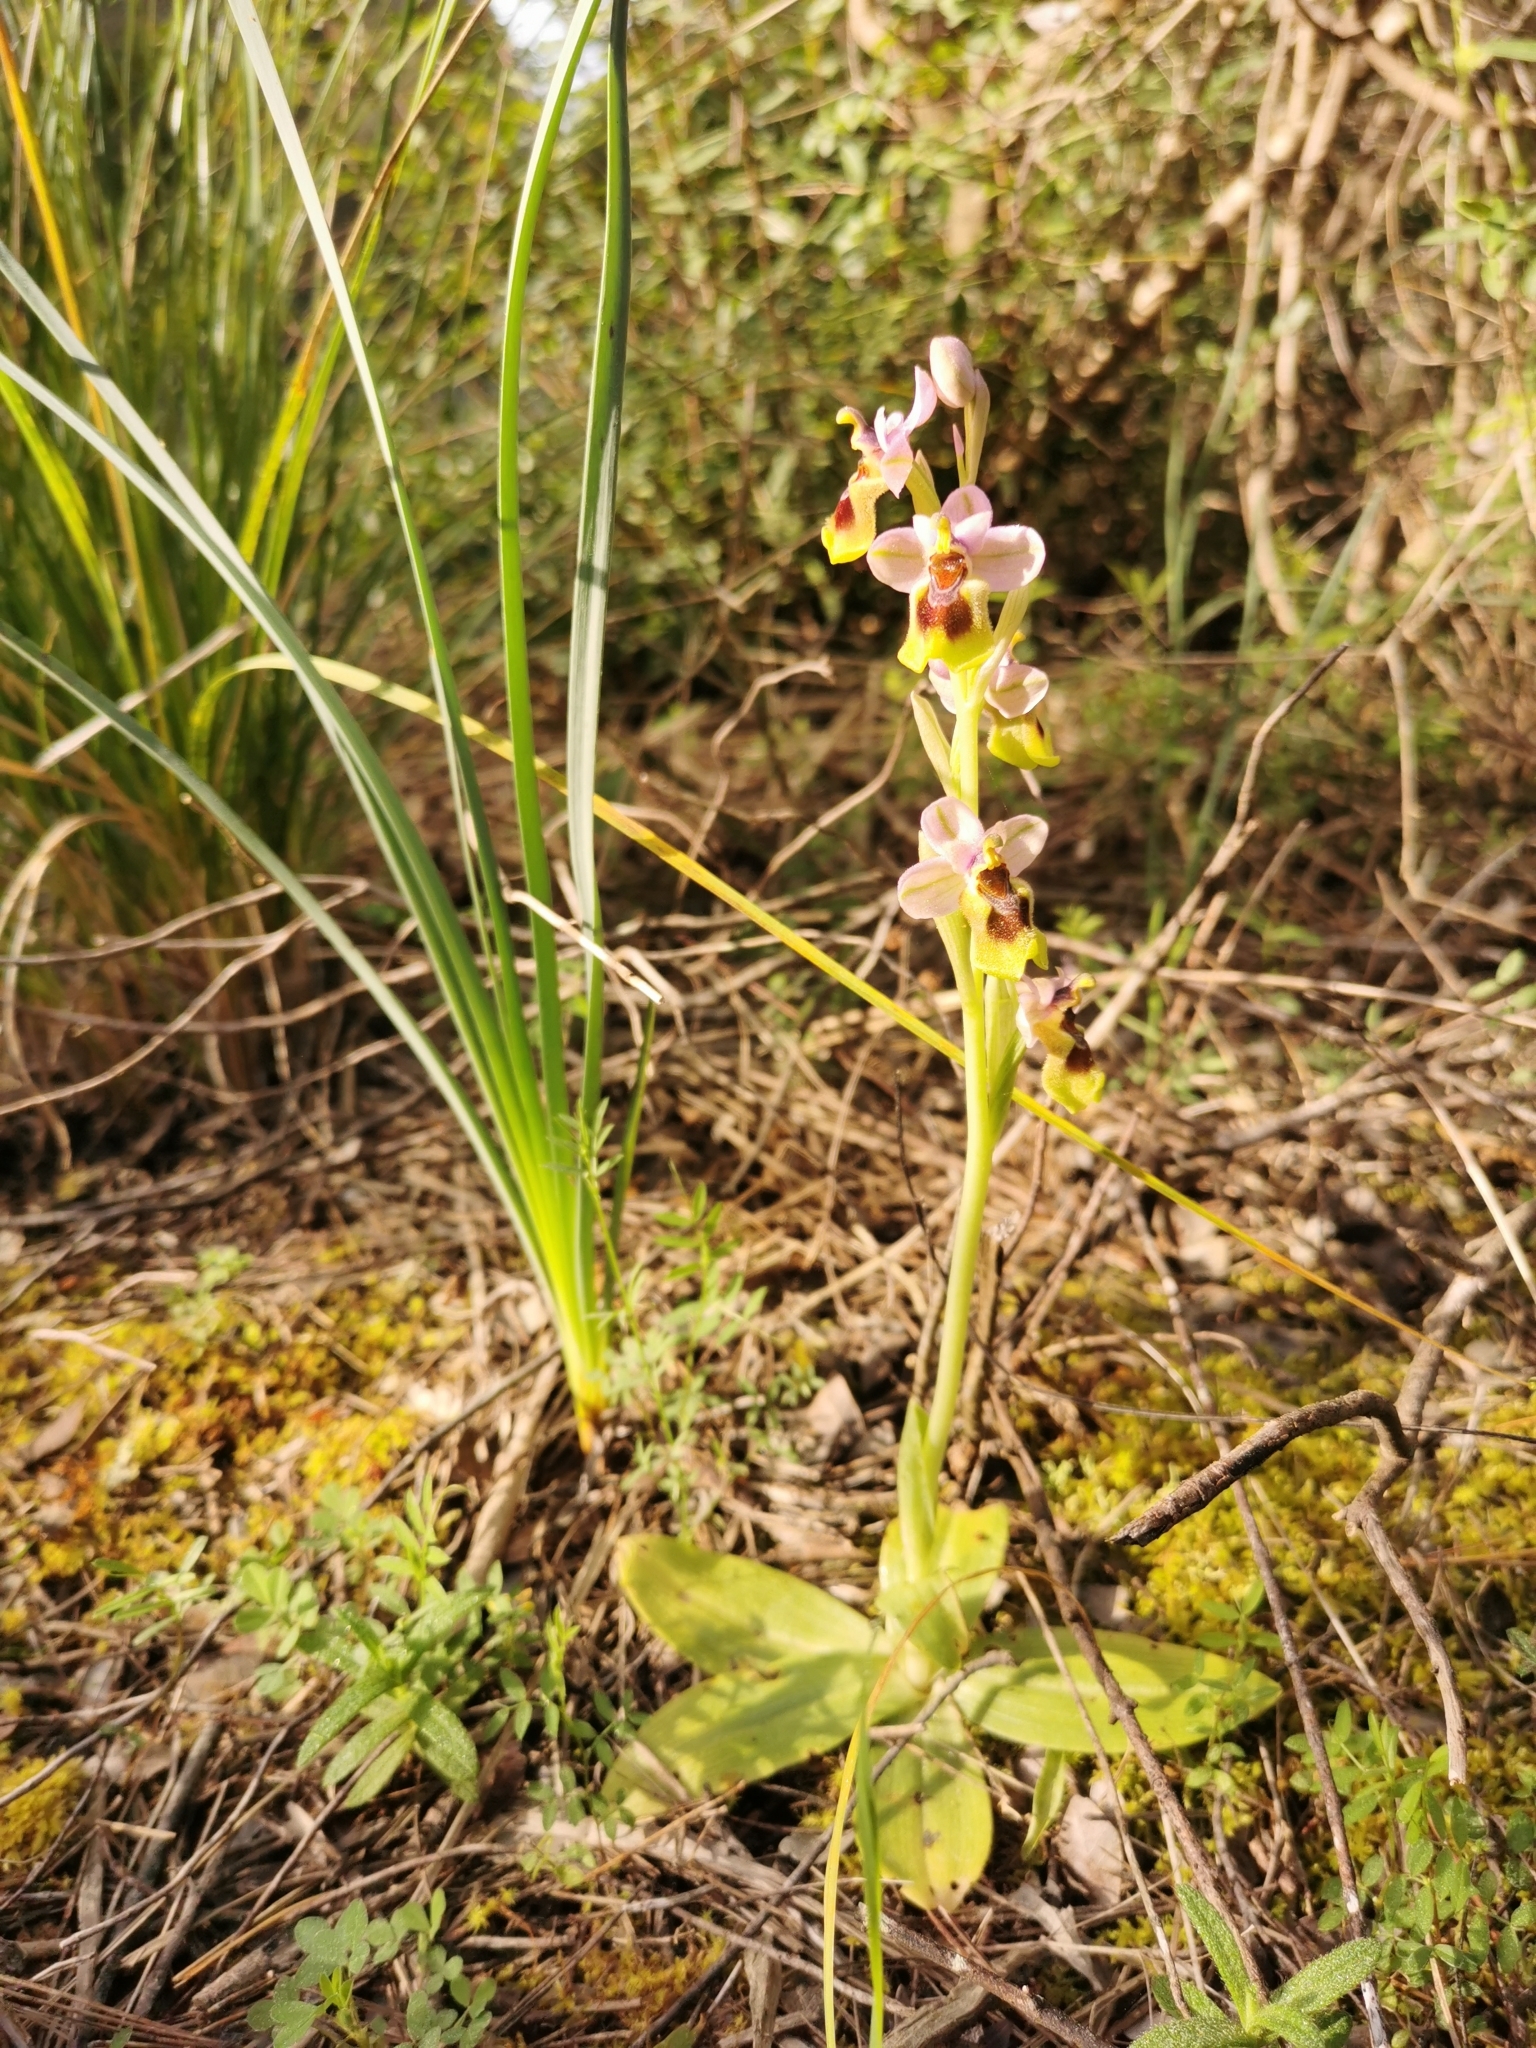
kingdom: Plantae
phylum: Tracheophyta
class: Liliopsida
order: Asparagales
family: Orchidaceae
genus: Ophrys
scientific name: Ophrys tenthredinifera
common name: Sawfly orchid
